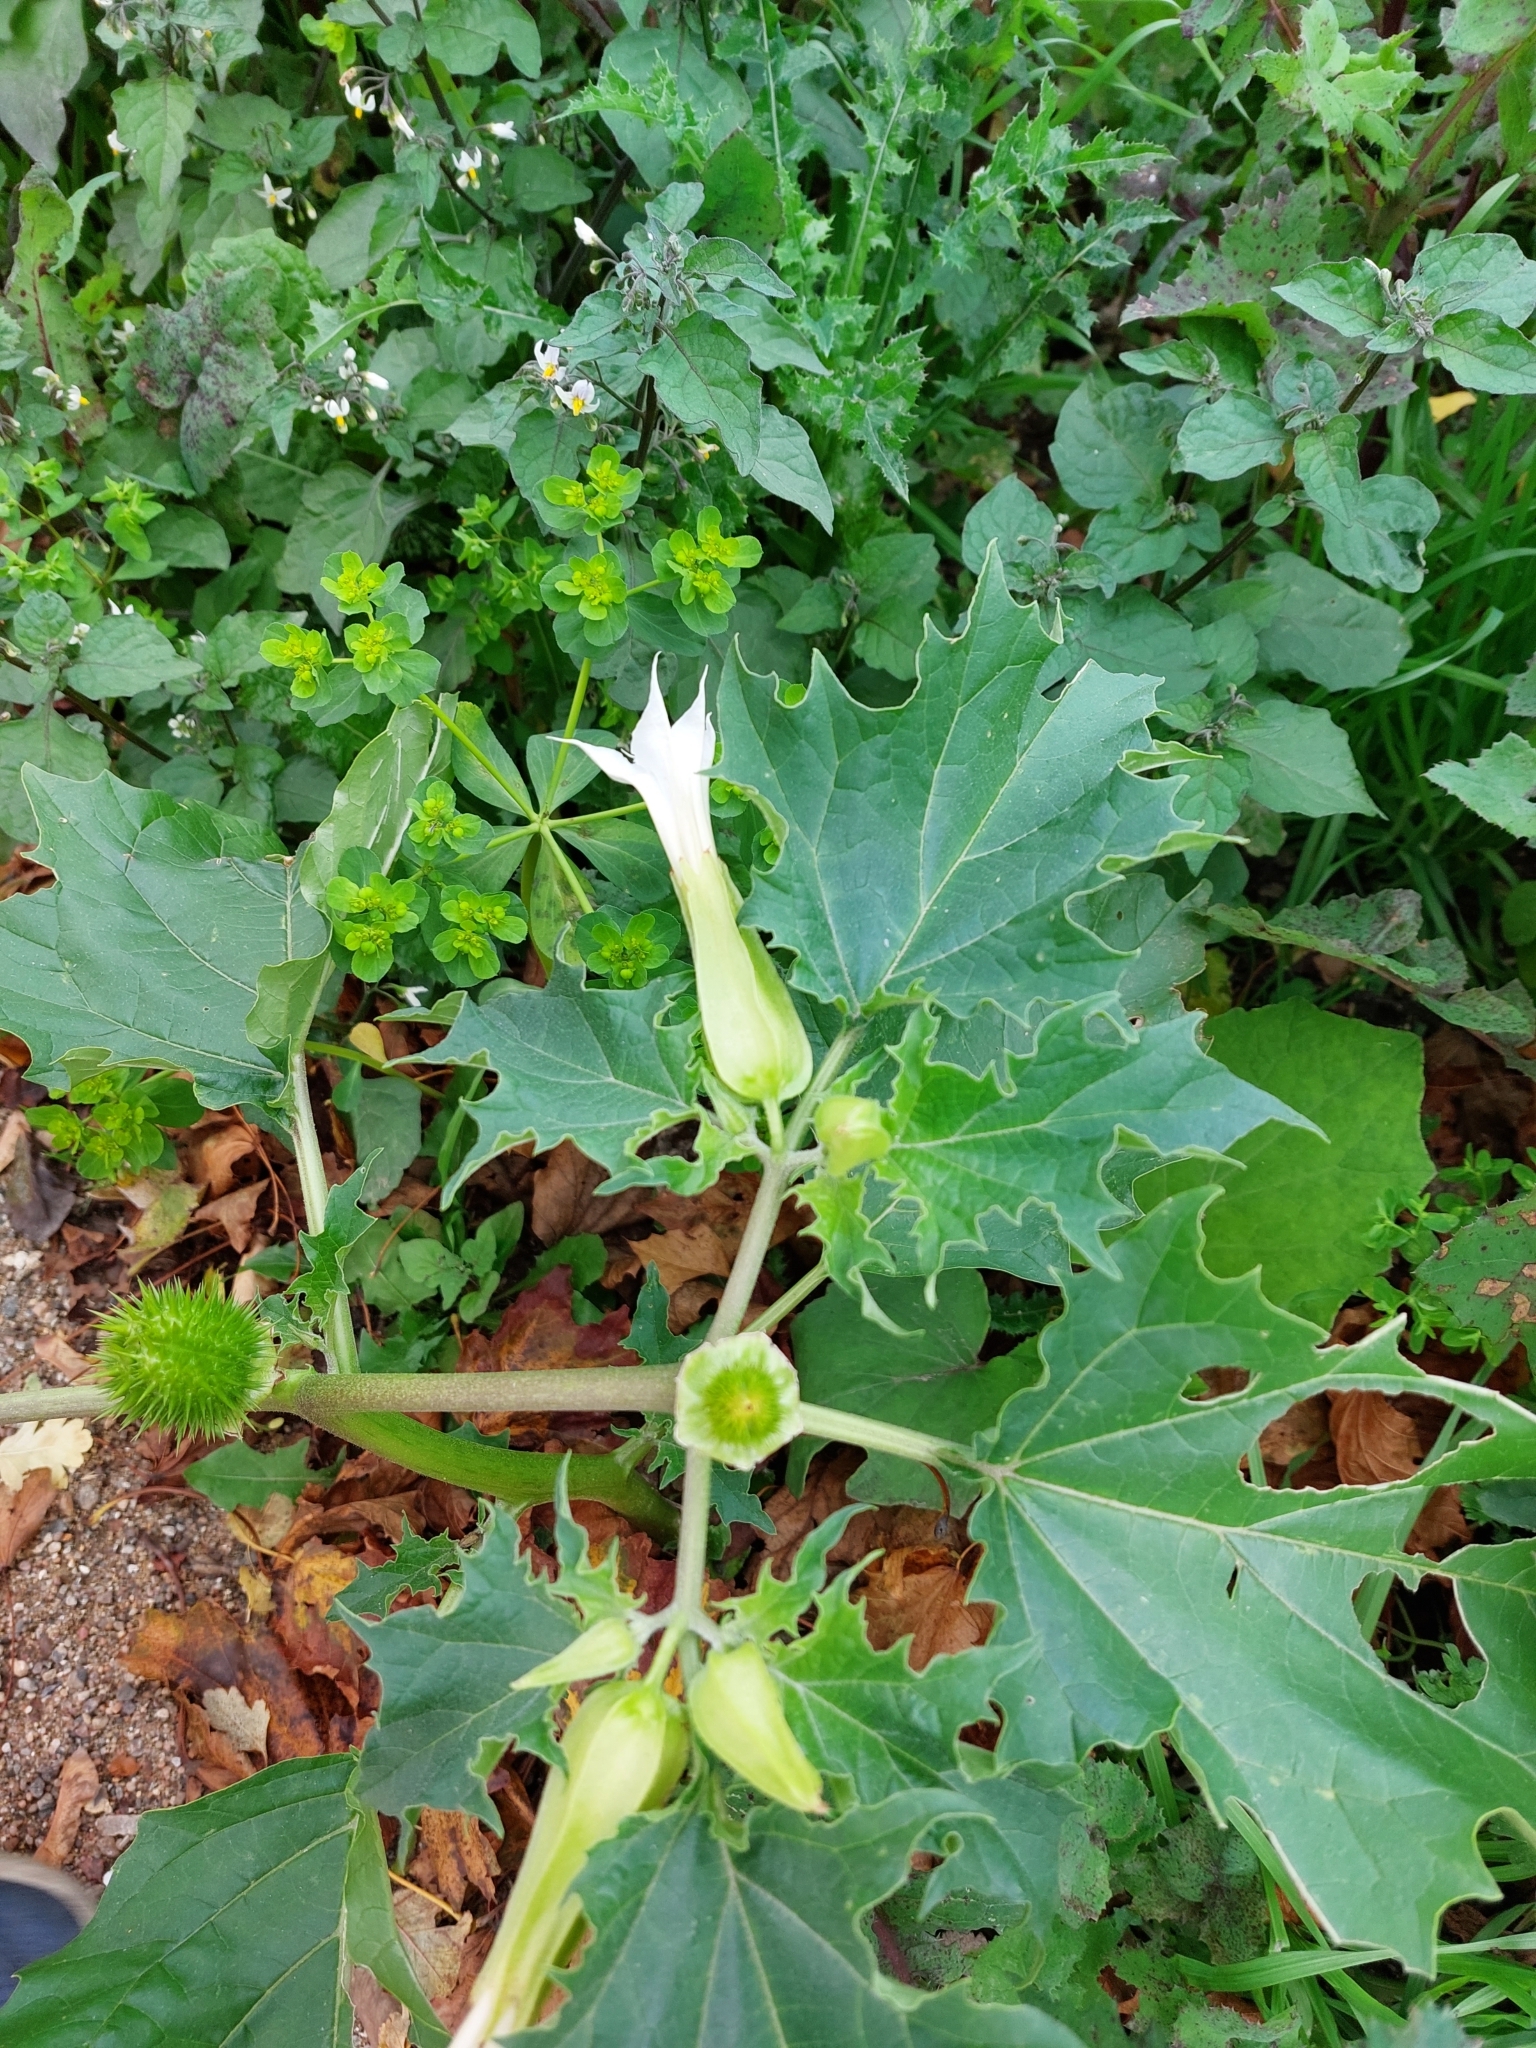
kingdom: Plantae
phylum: Tracheophyta
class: Magnoliopsida
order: Solanales
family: Solanaceae
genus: Datura
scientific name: Datura stramonium
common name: Thorn-apple
